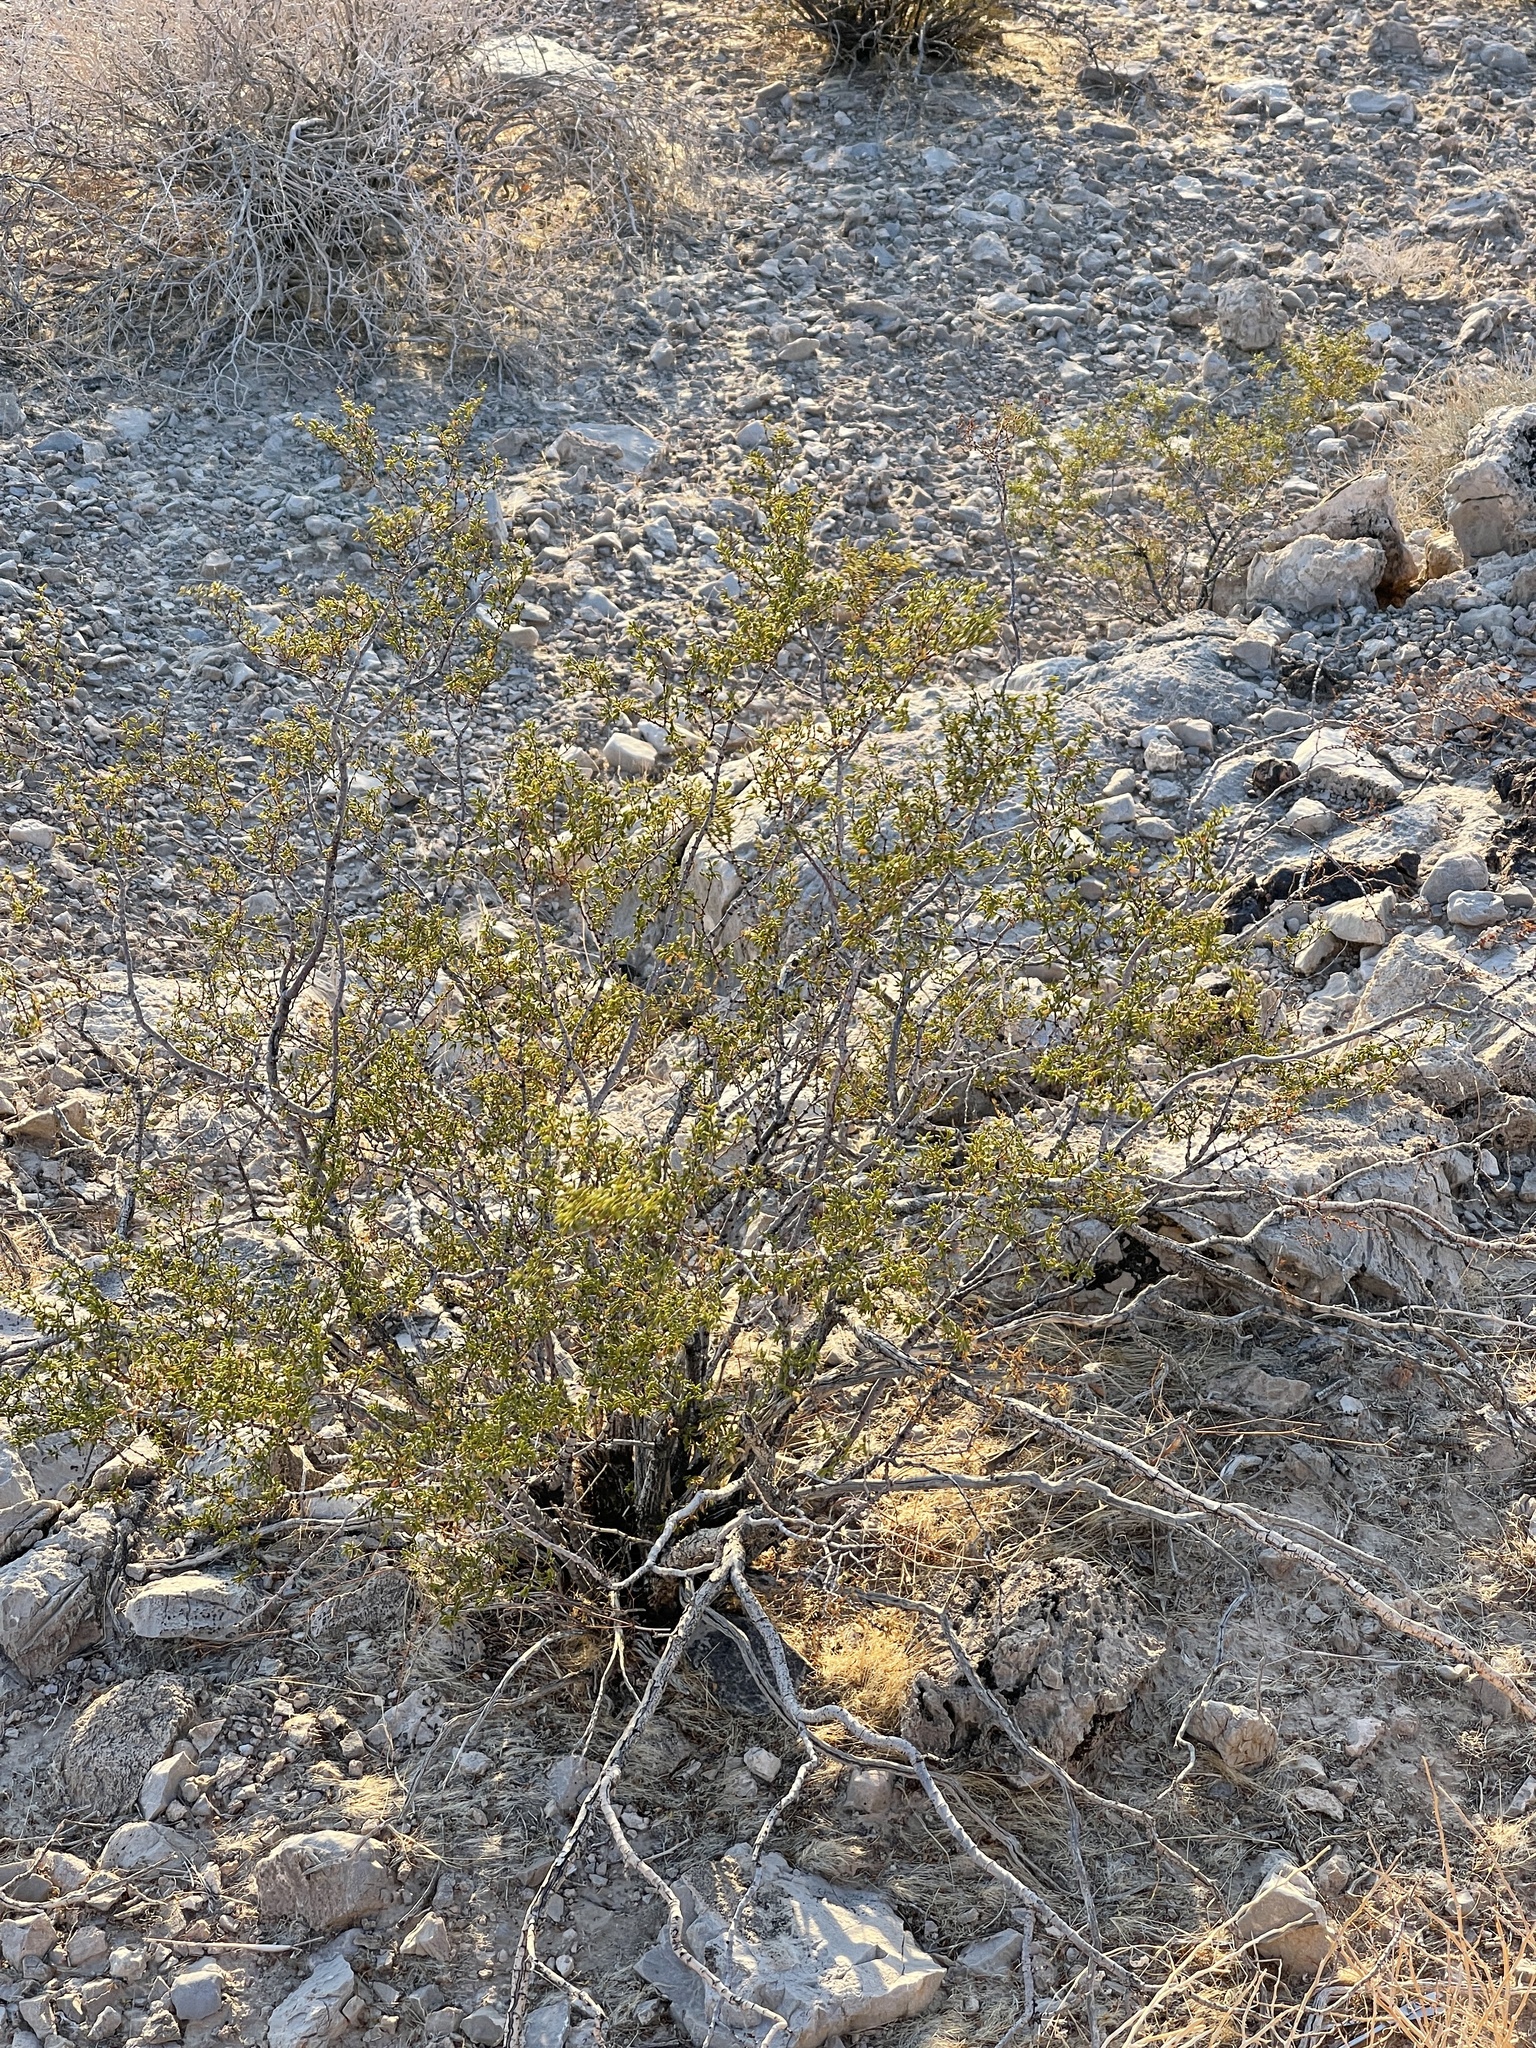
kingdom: Plantae
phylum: Tracheophyta
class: Magnoliopsida
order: Zygophyllales
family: Zygophyllaceae
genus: Larrea
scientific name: Larrea tridentata
